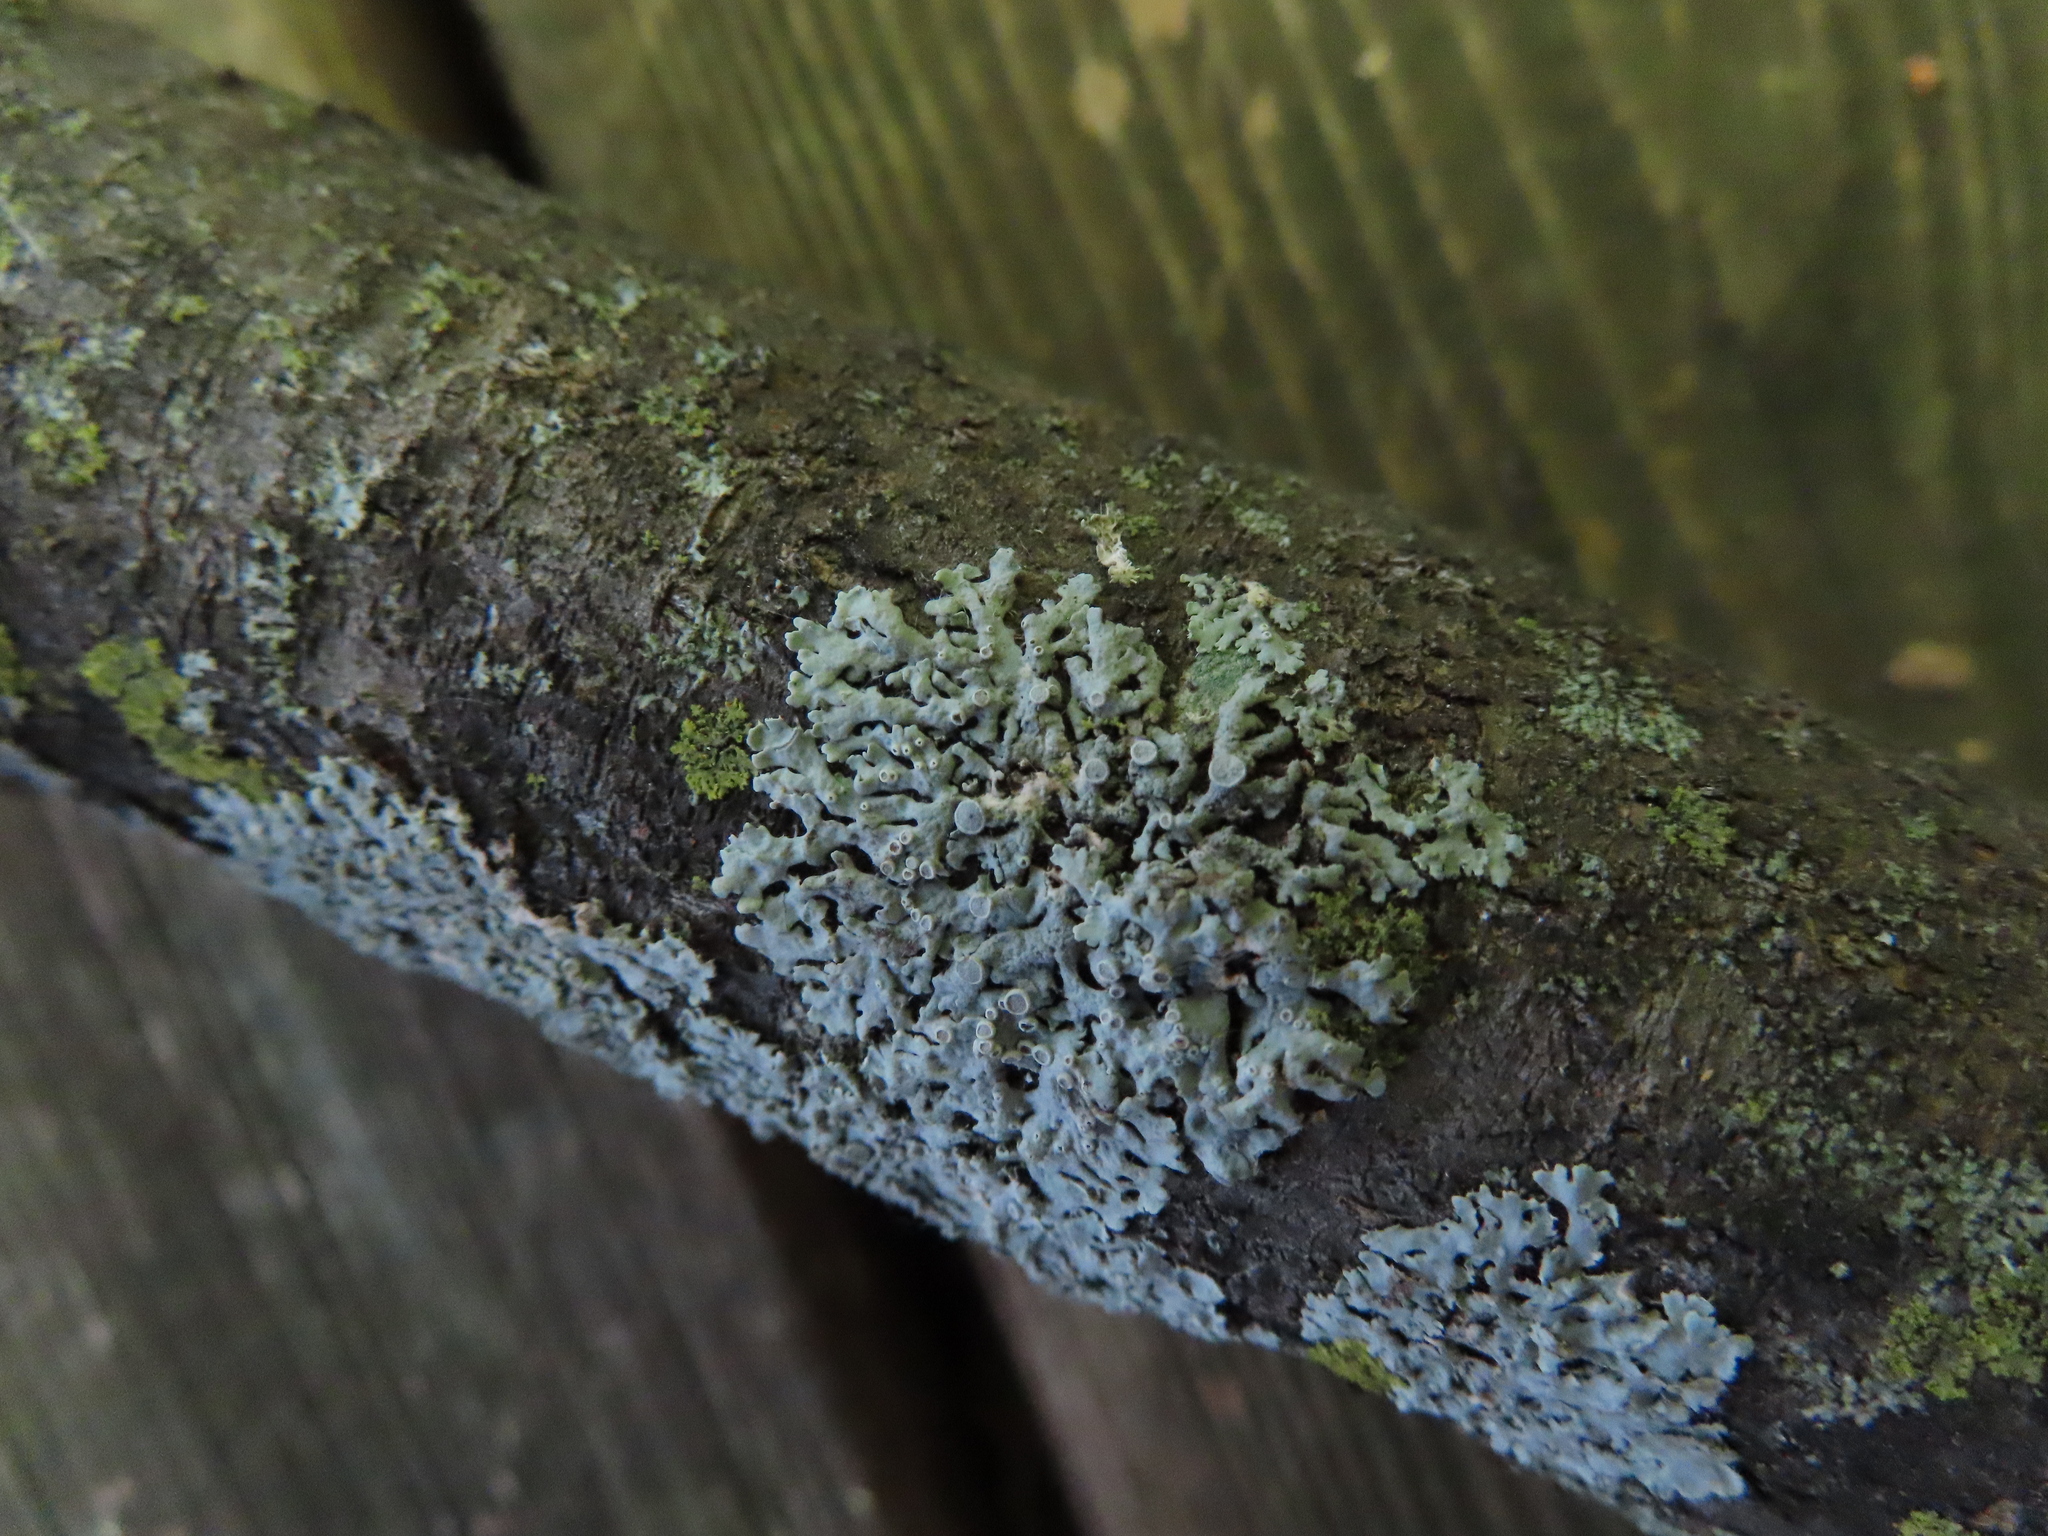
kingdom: Fungi
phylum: Ascomycota
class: Lecanoromycetes
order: Caliciales
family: Physciaceae
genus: Physcia
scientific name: Physcia stellaris
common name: Star rosette lichen
